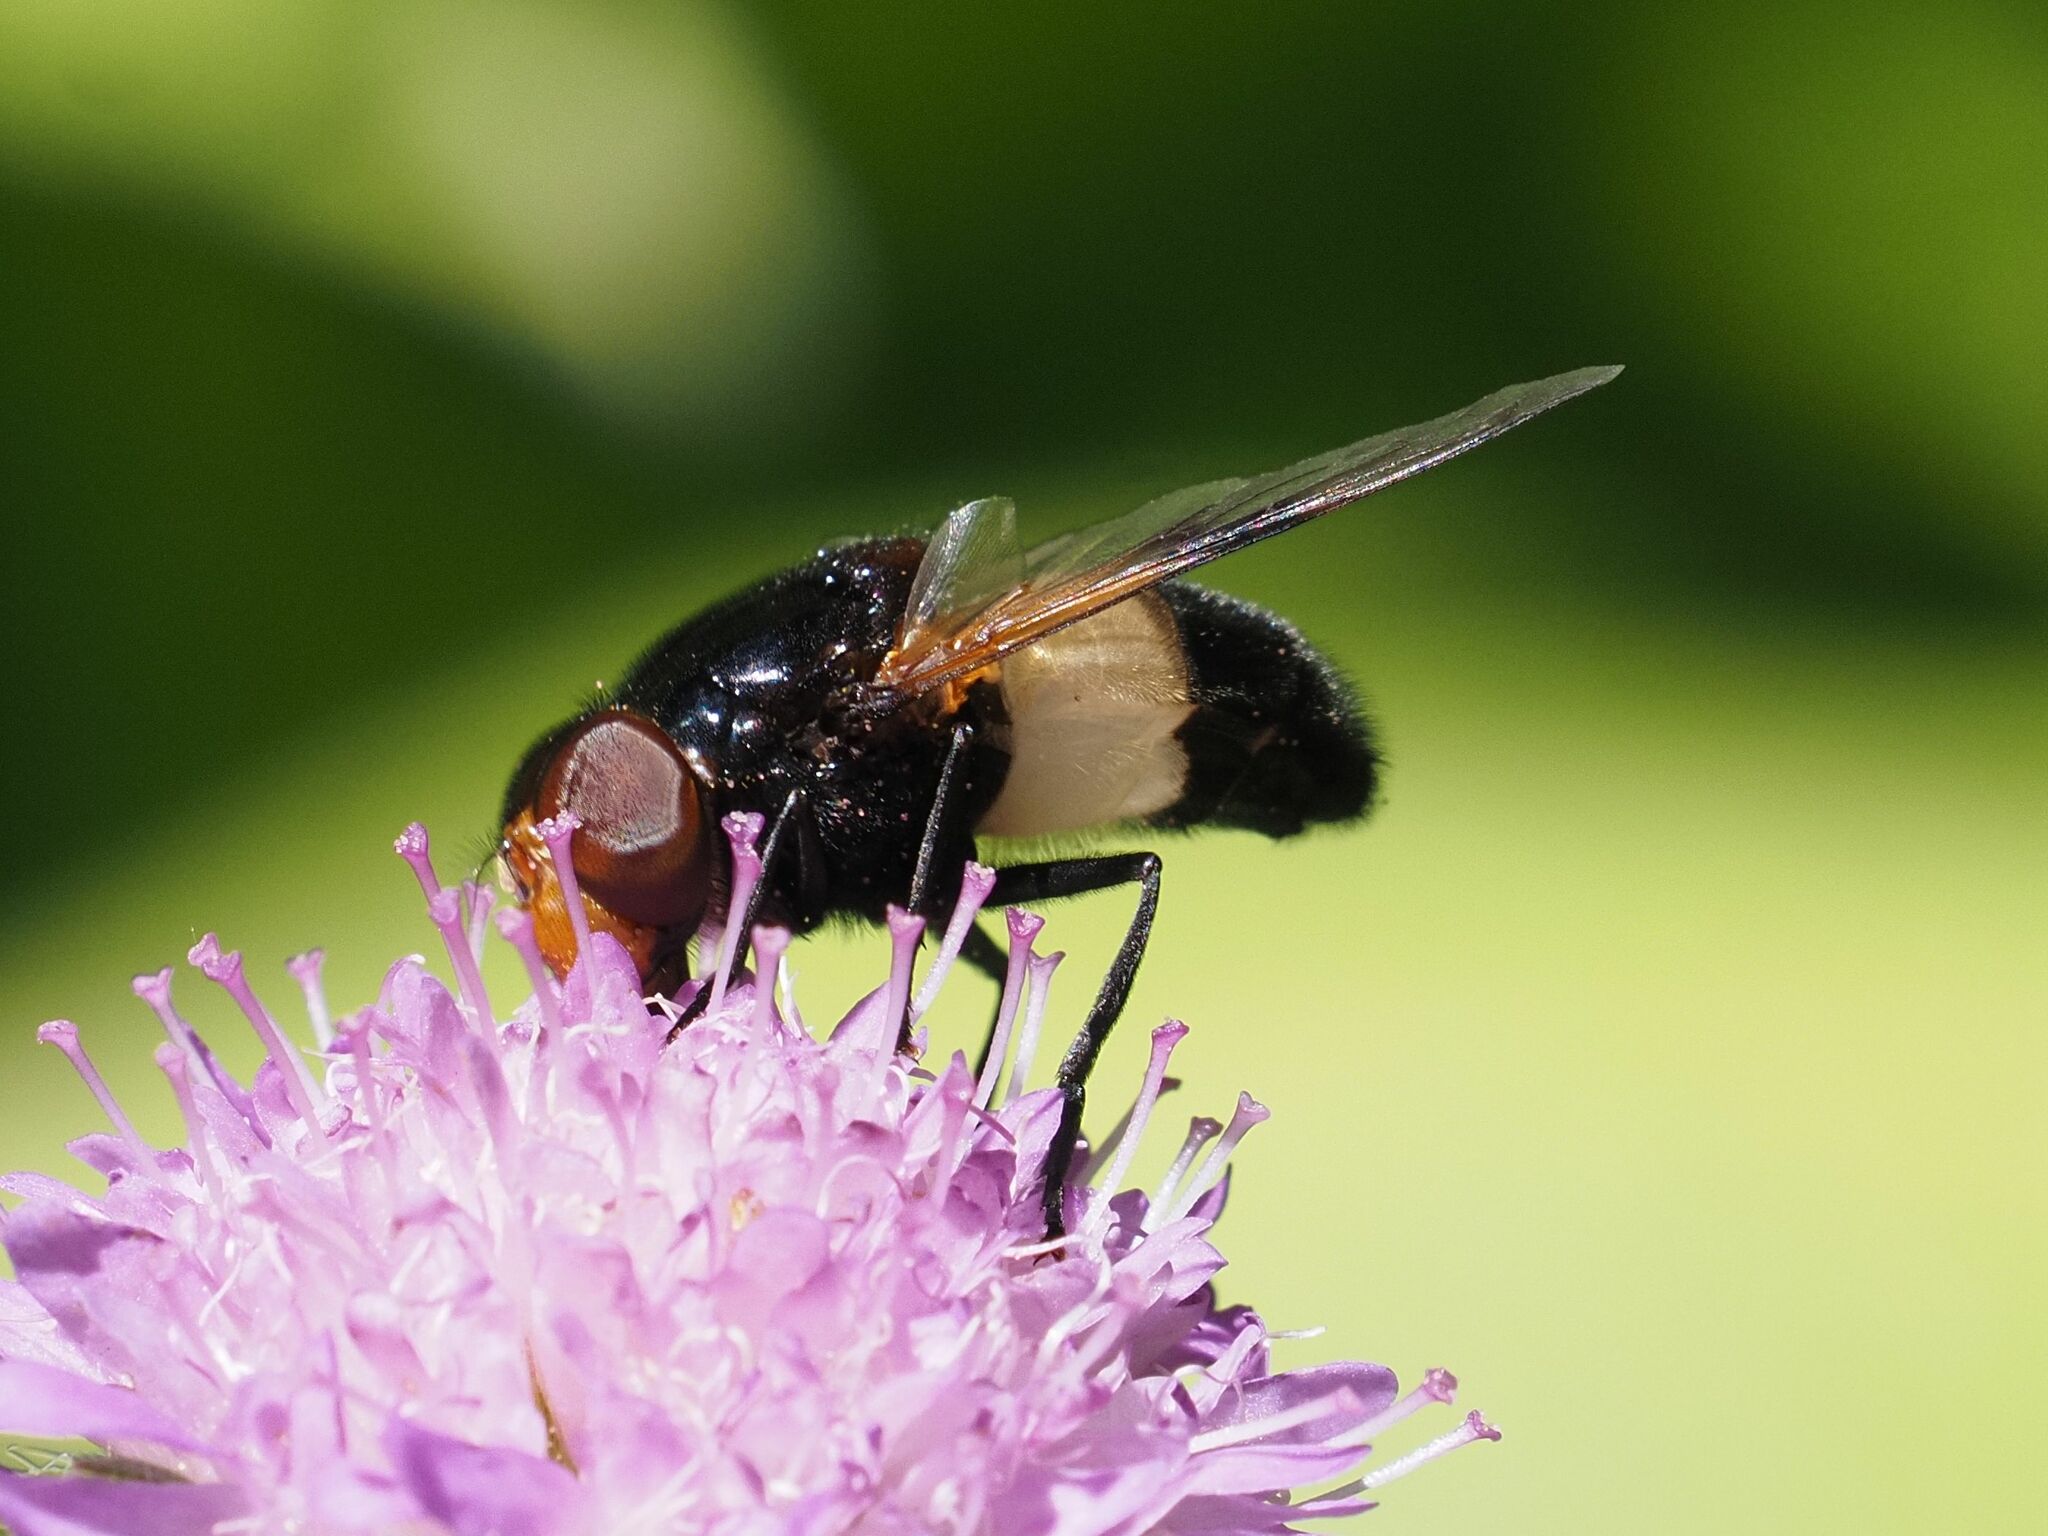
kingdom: Animalia
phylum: Arthropoda
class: Insecta
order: Diptera
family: Syrphidae
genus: Volucella
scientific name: Volucella pellucens
